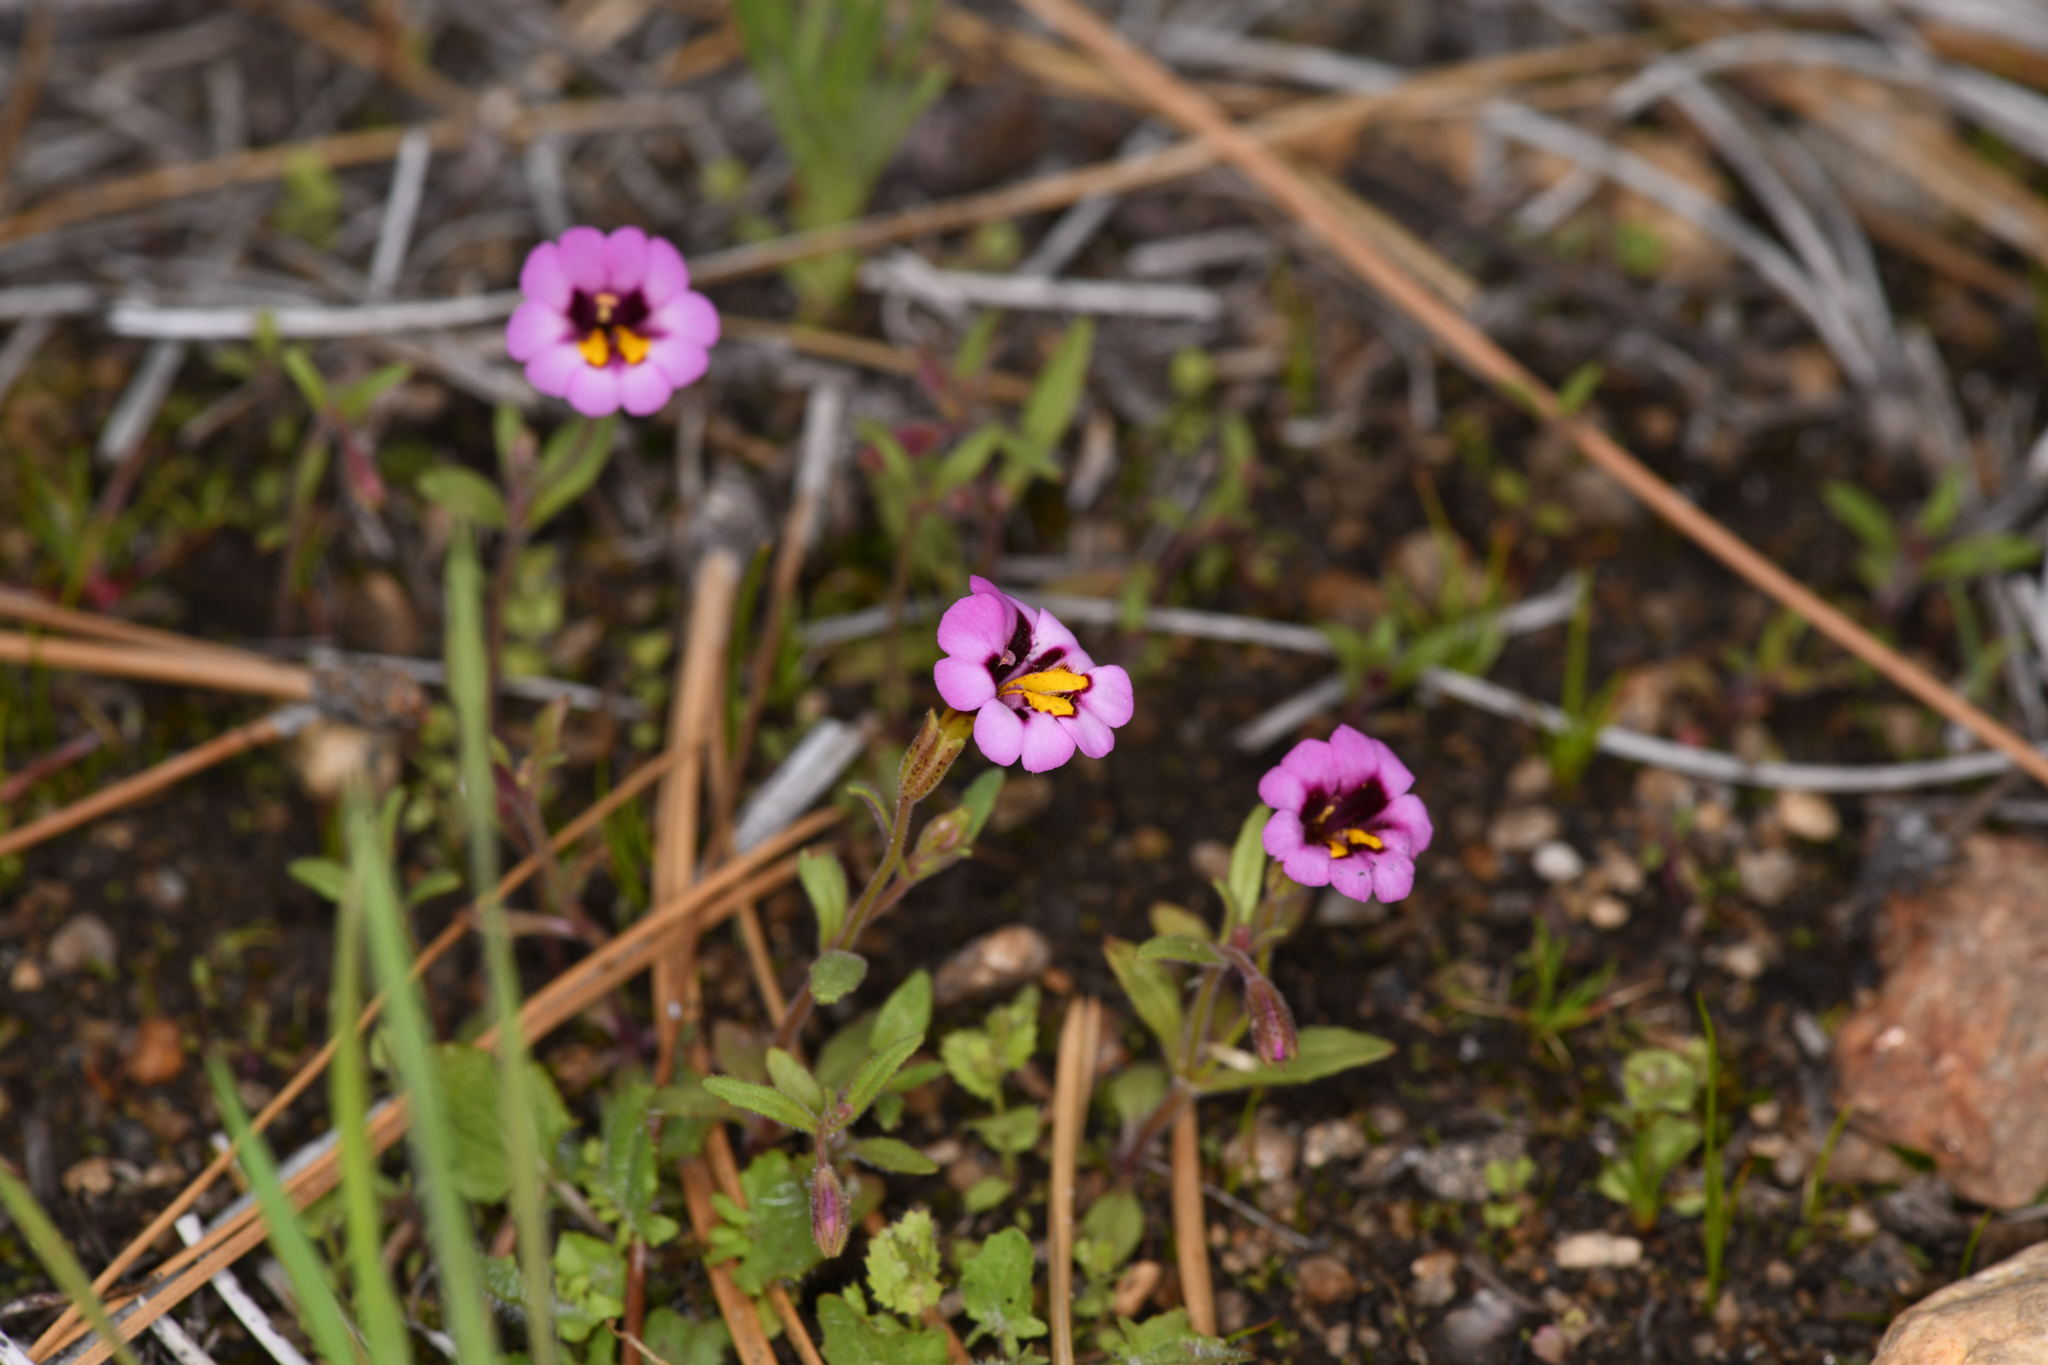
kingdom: Plantae
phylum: Tracheophyta
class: Magnoliopsida
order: Lamiales
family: Phrymaceae
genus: Erythranthe
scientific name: Erythranthe filicaulis
